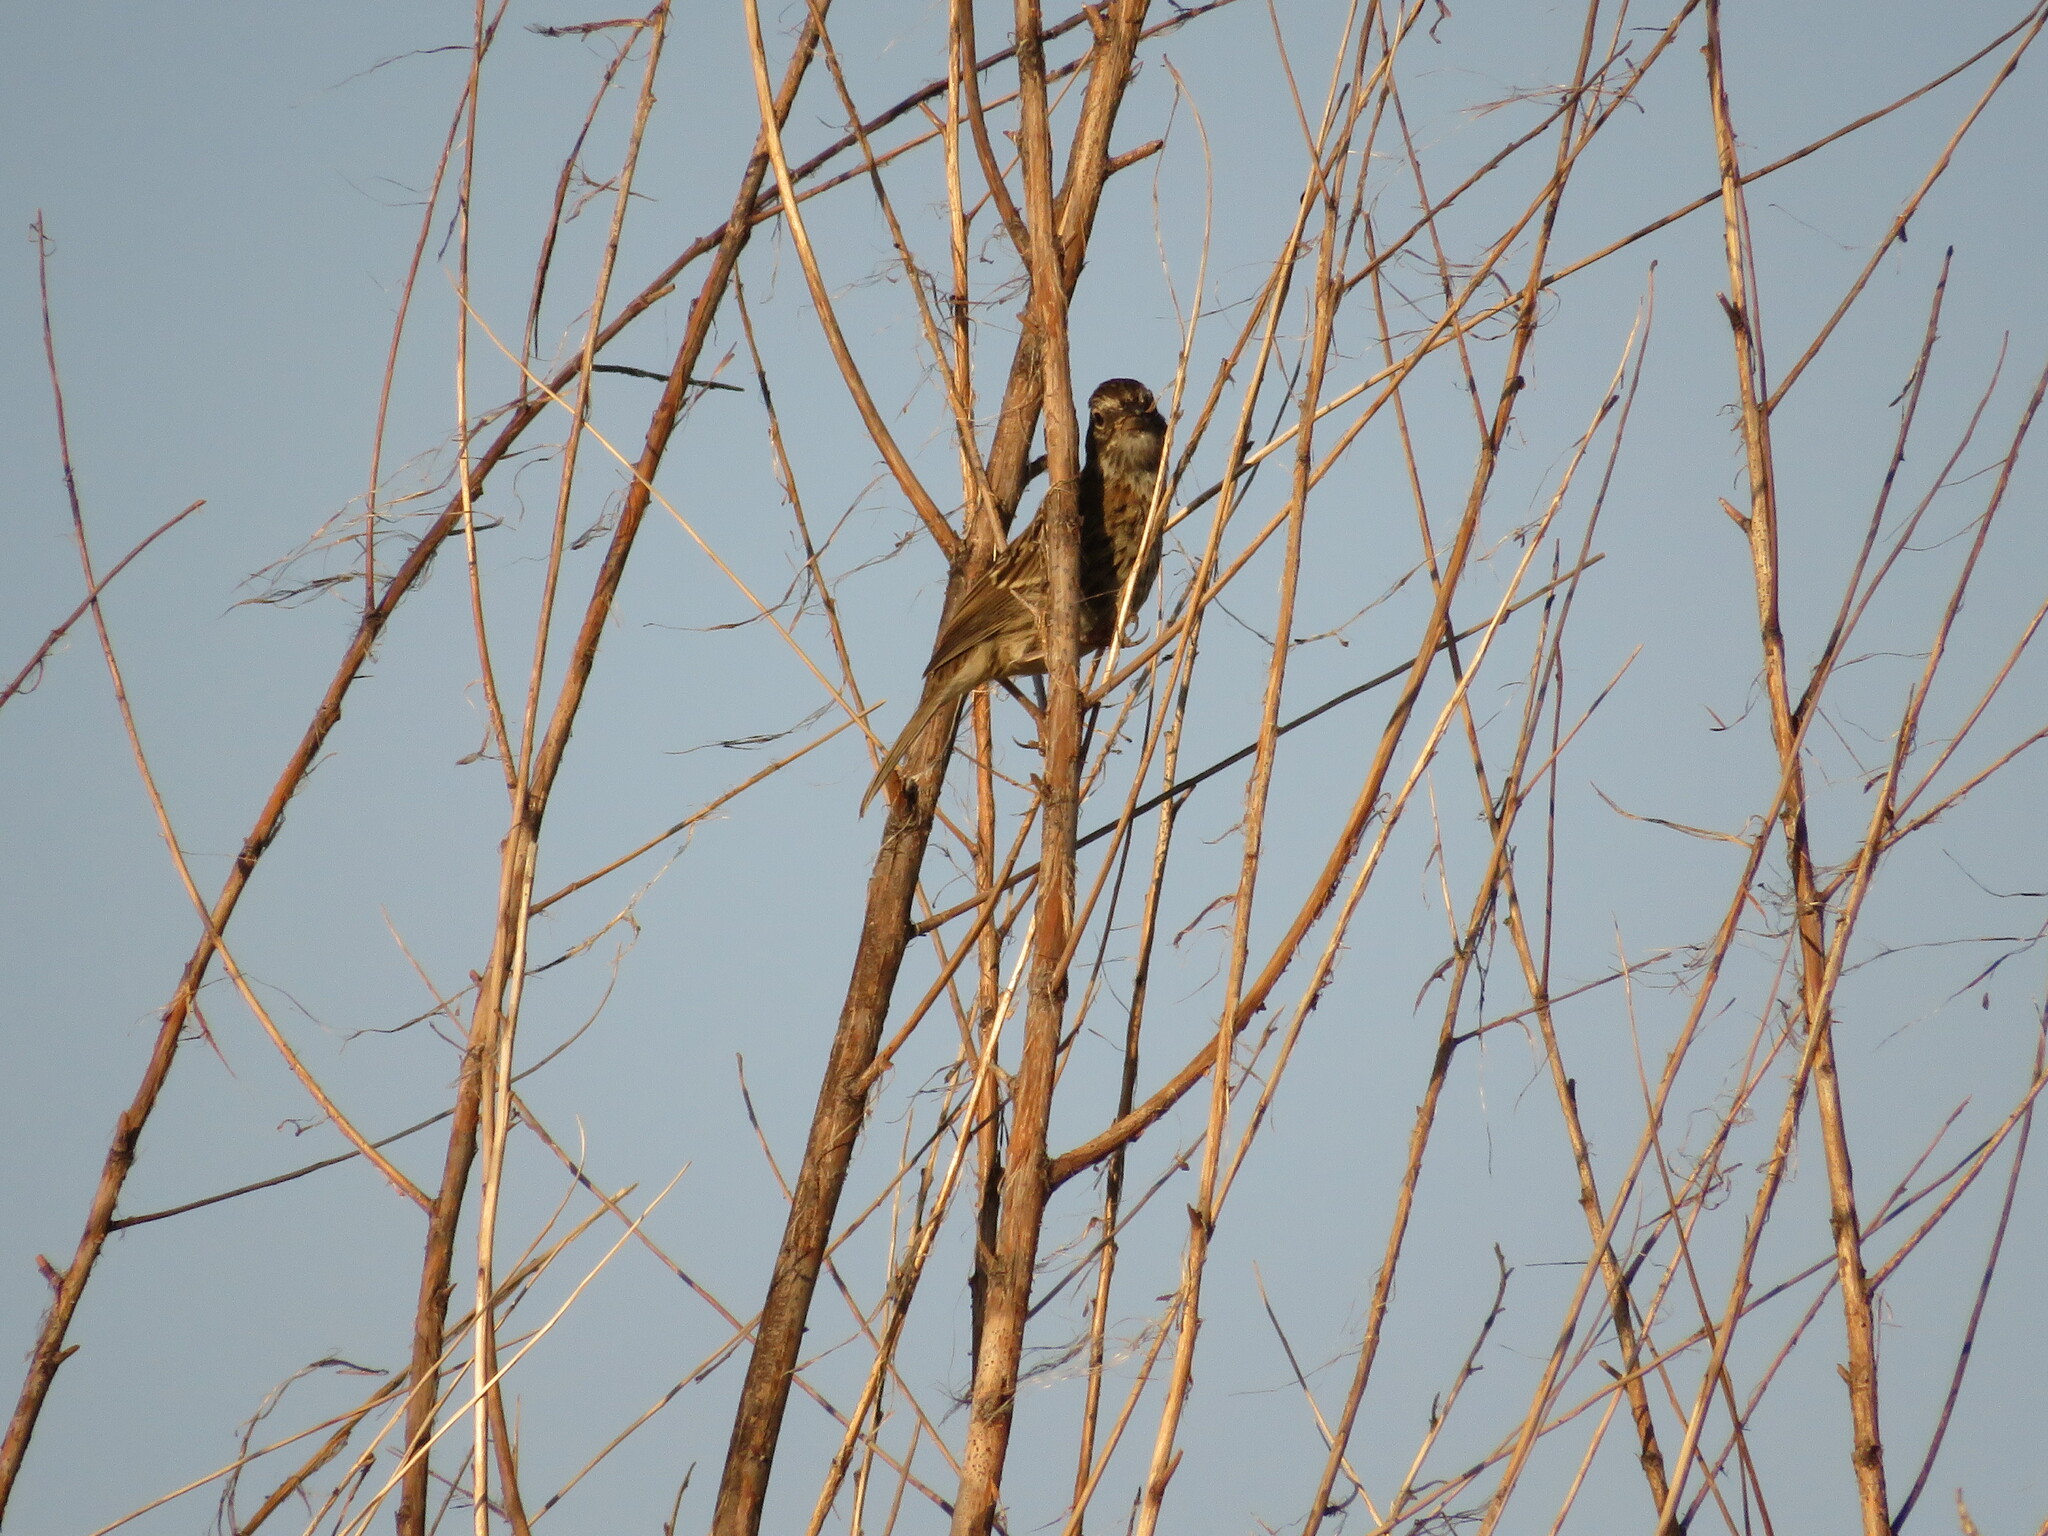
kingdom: Animalia
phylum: Chordata
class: Aves
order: Passeriformes
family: Passerellidae
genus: Zonotrichia
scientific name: Zonotrichia capensis
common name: Rufous-collared sparrow
